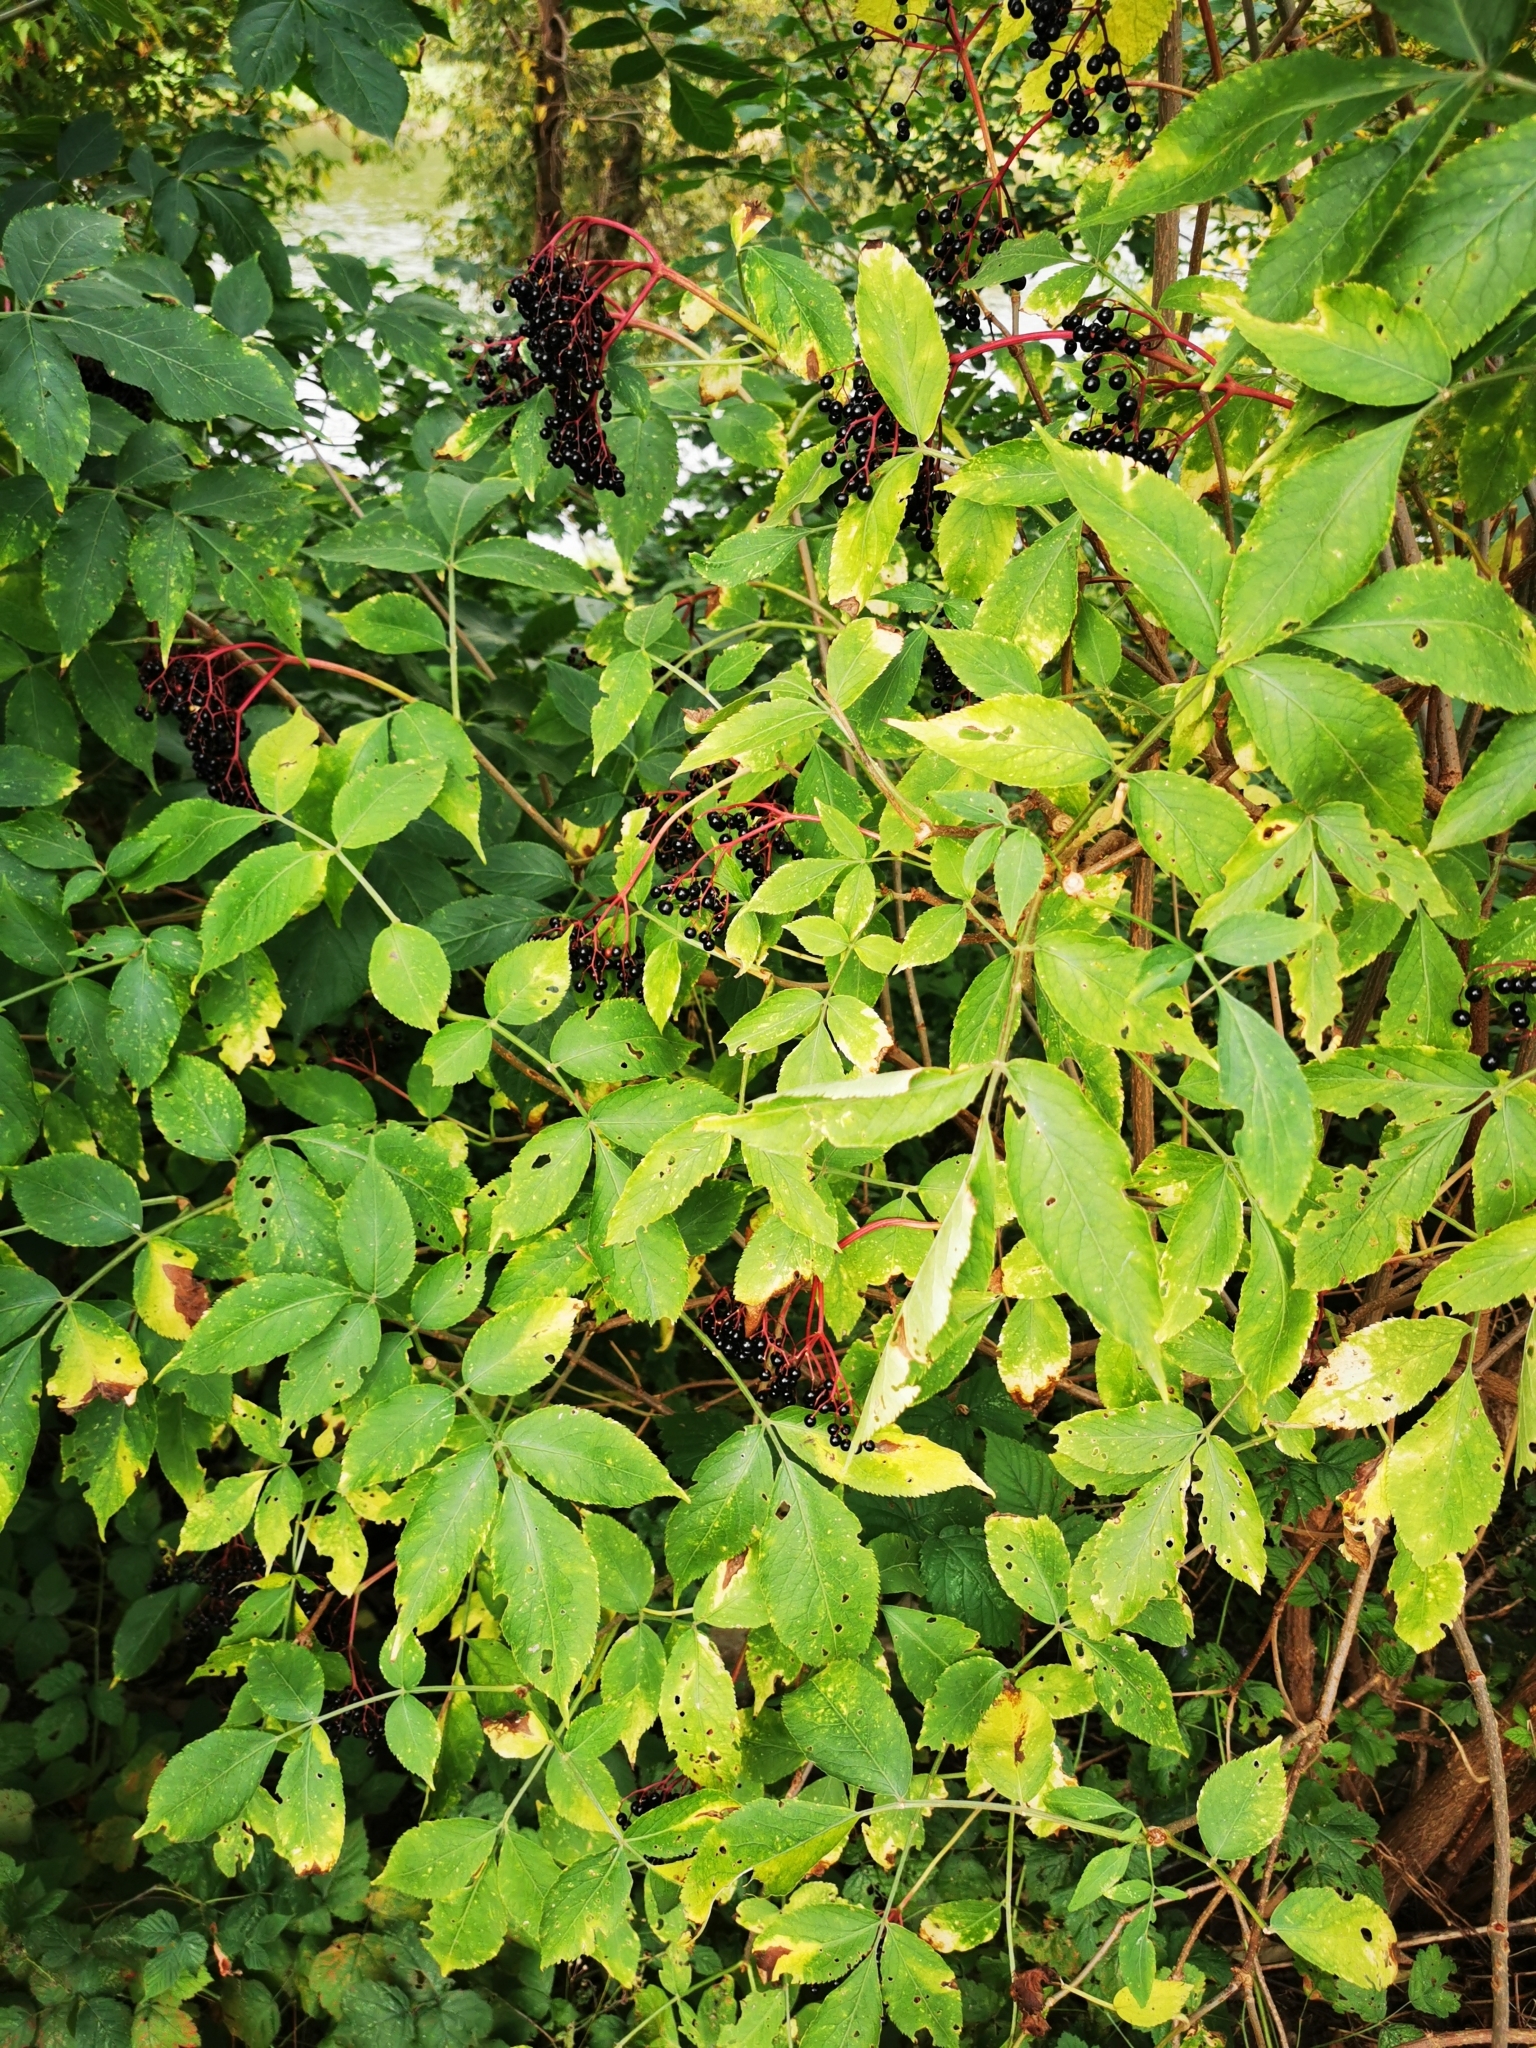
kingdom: Plantae
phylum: Tracheophyta
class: Magnoliopsida
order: Dipsacales
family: Viburnaceae
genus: Sambucus
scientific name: Sambucus nigra
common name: Elder
